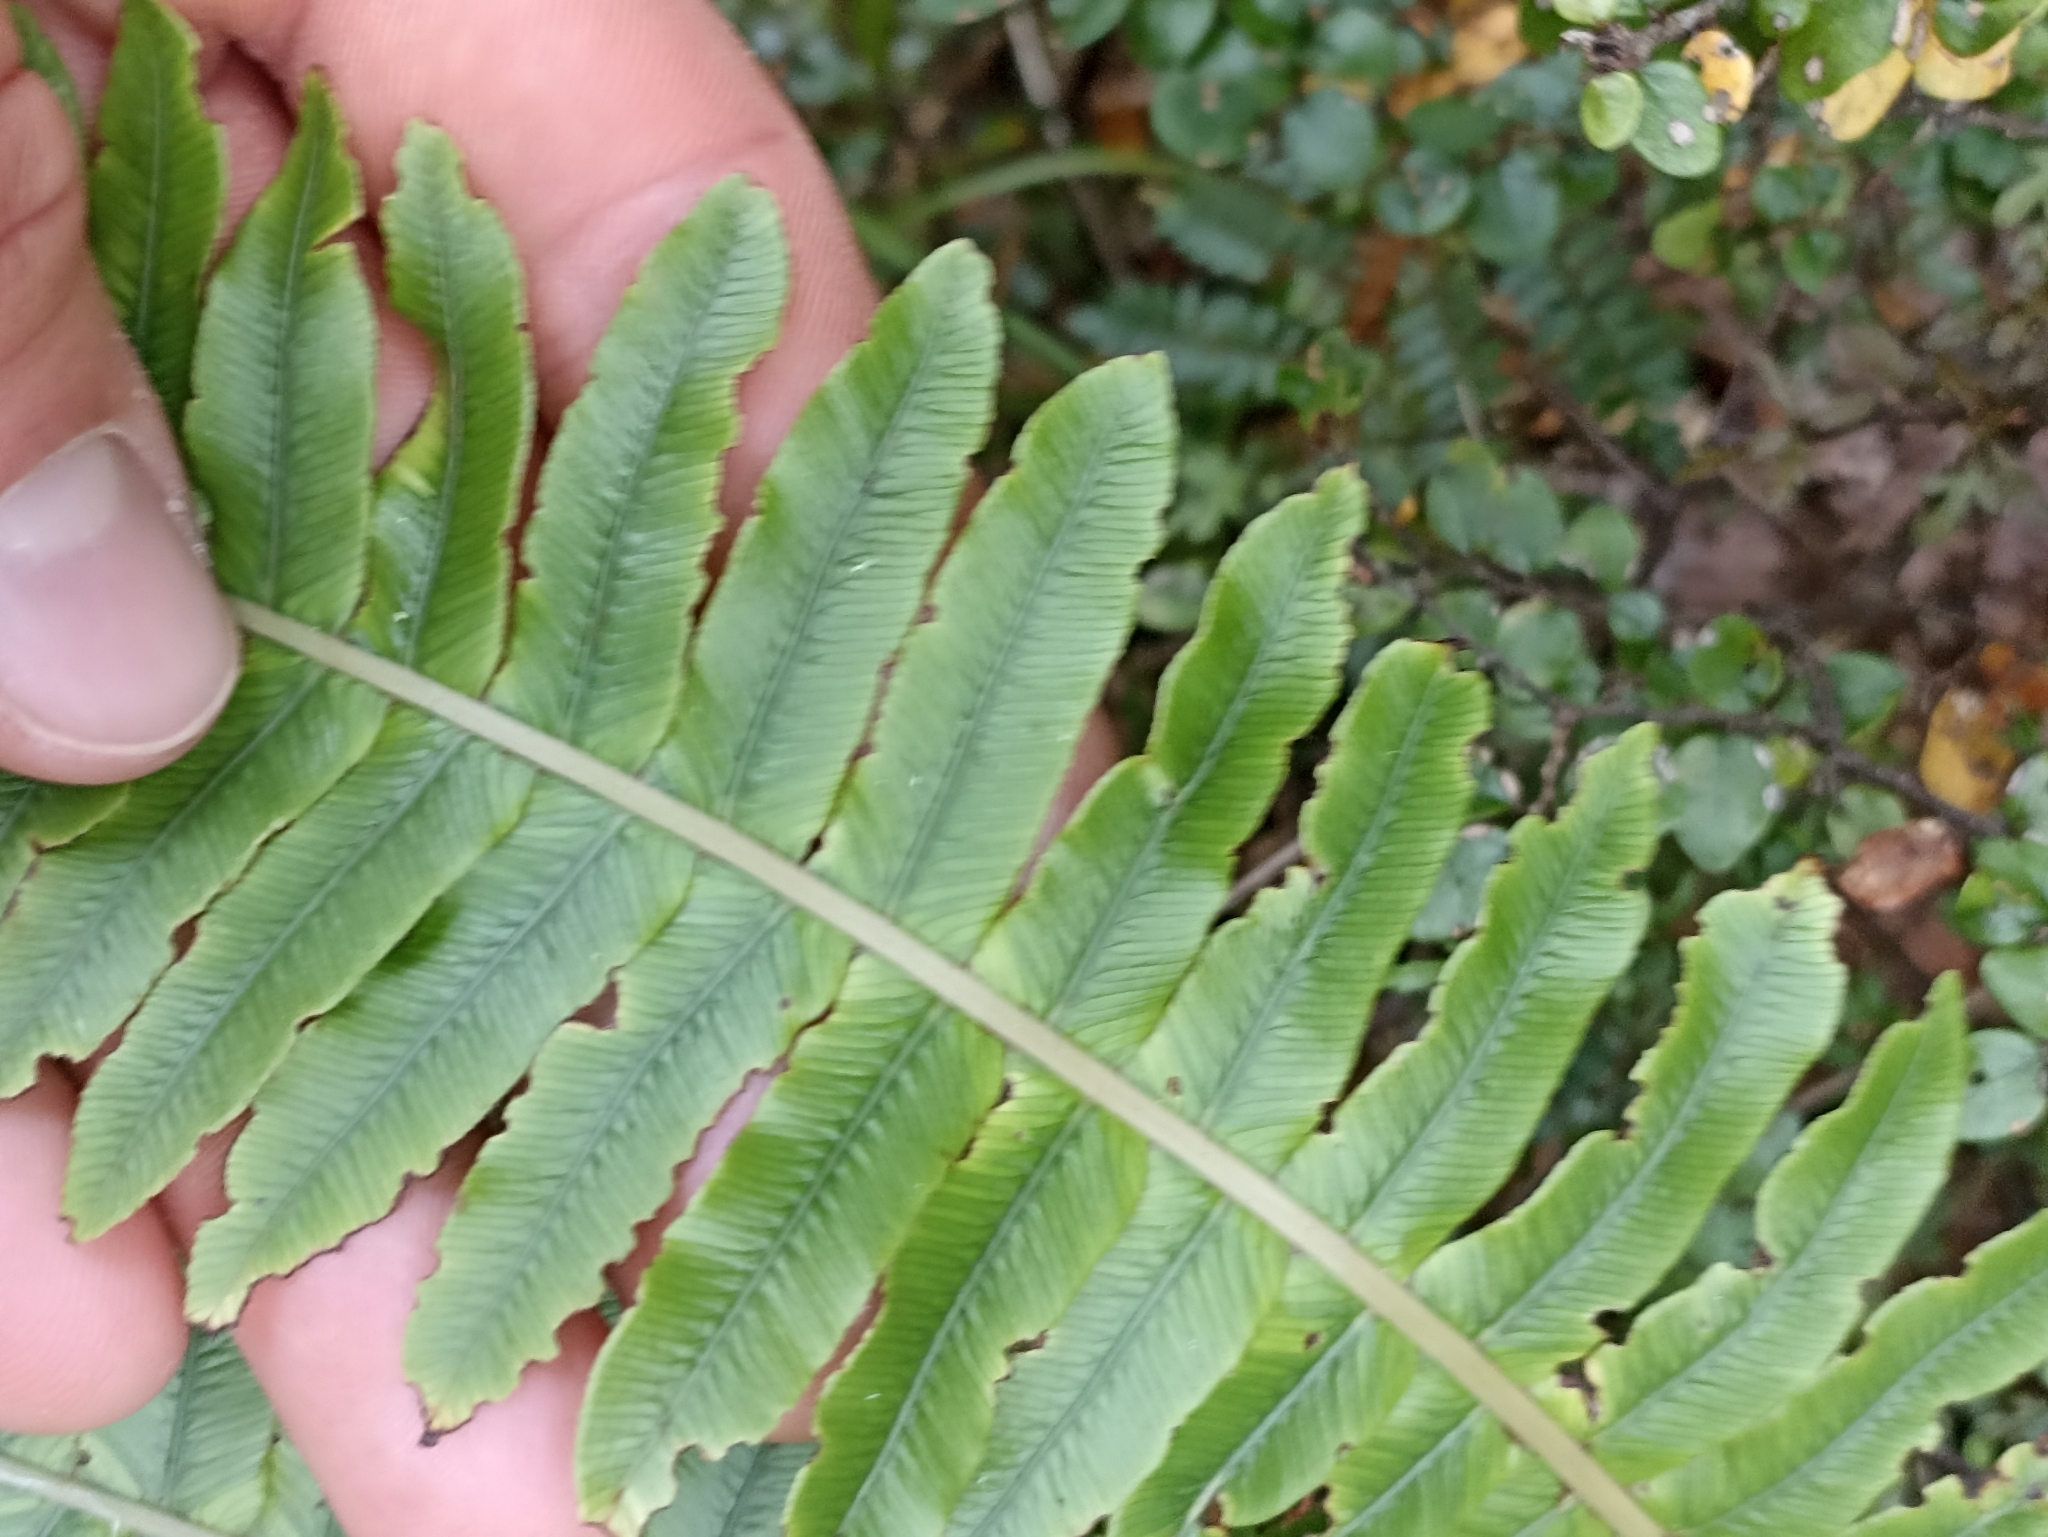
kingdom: Plantae
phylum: Tracheophyta
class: Polypodiopsida
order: Polypodiales
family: Blechnaceae
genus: Lomaria
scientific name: Lomaria discolor
